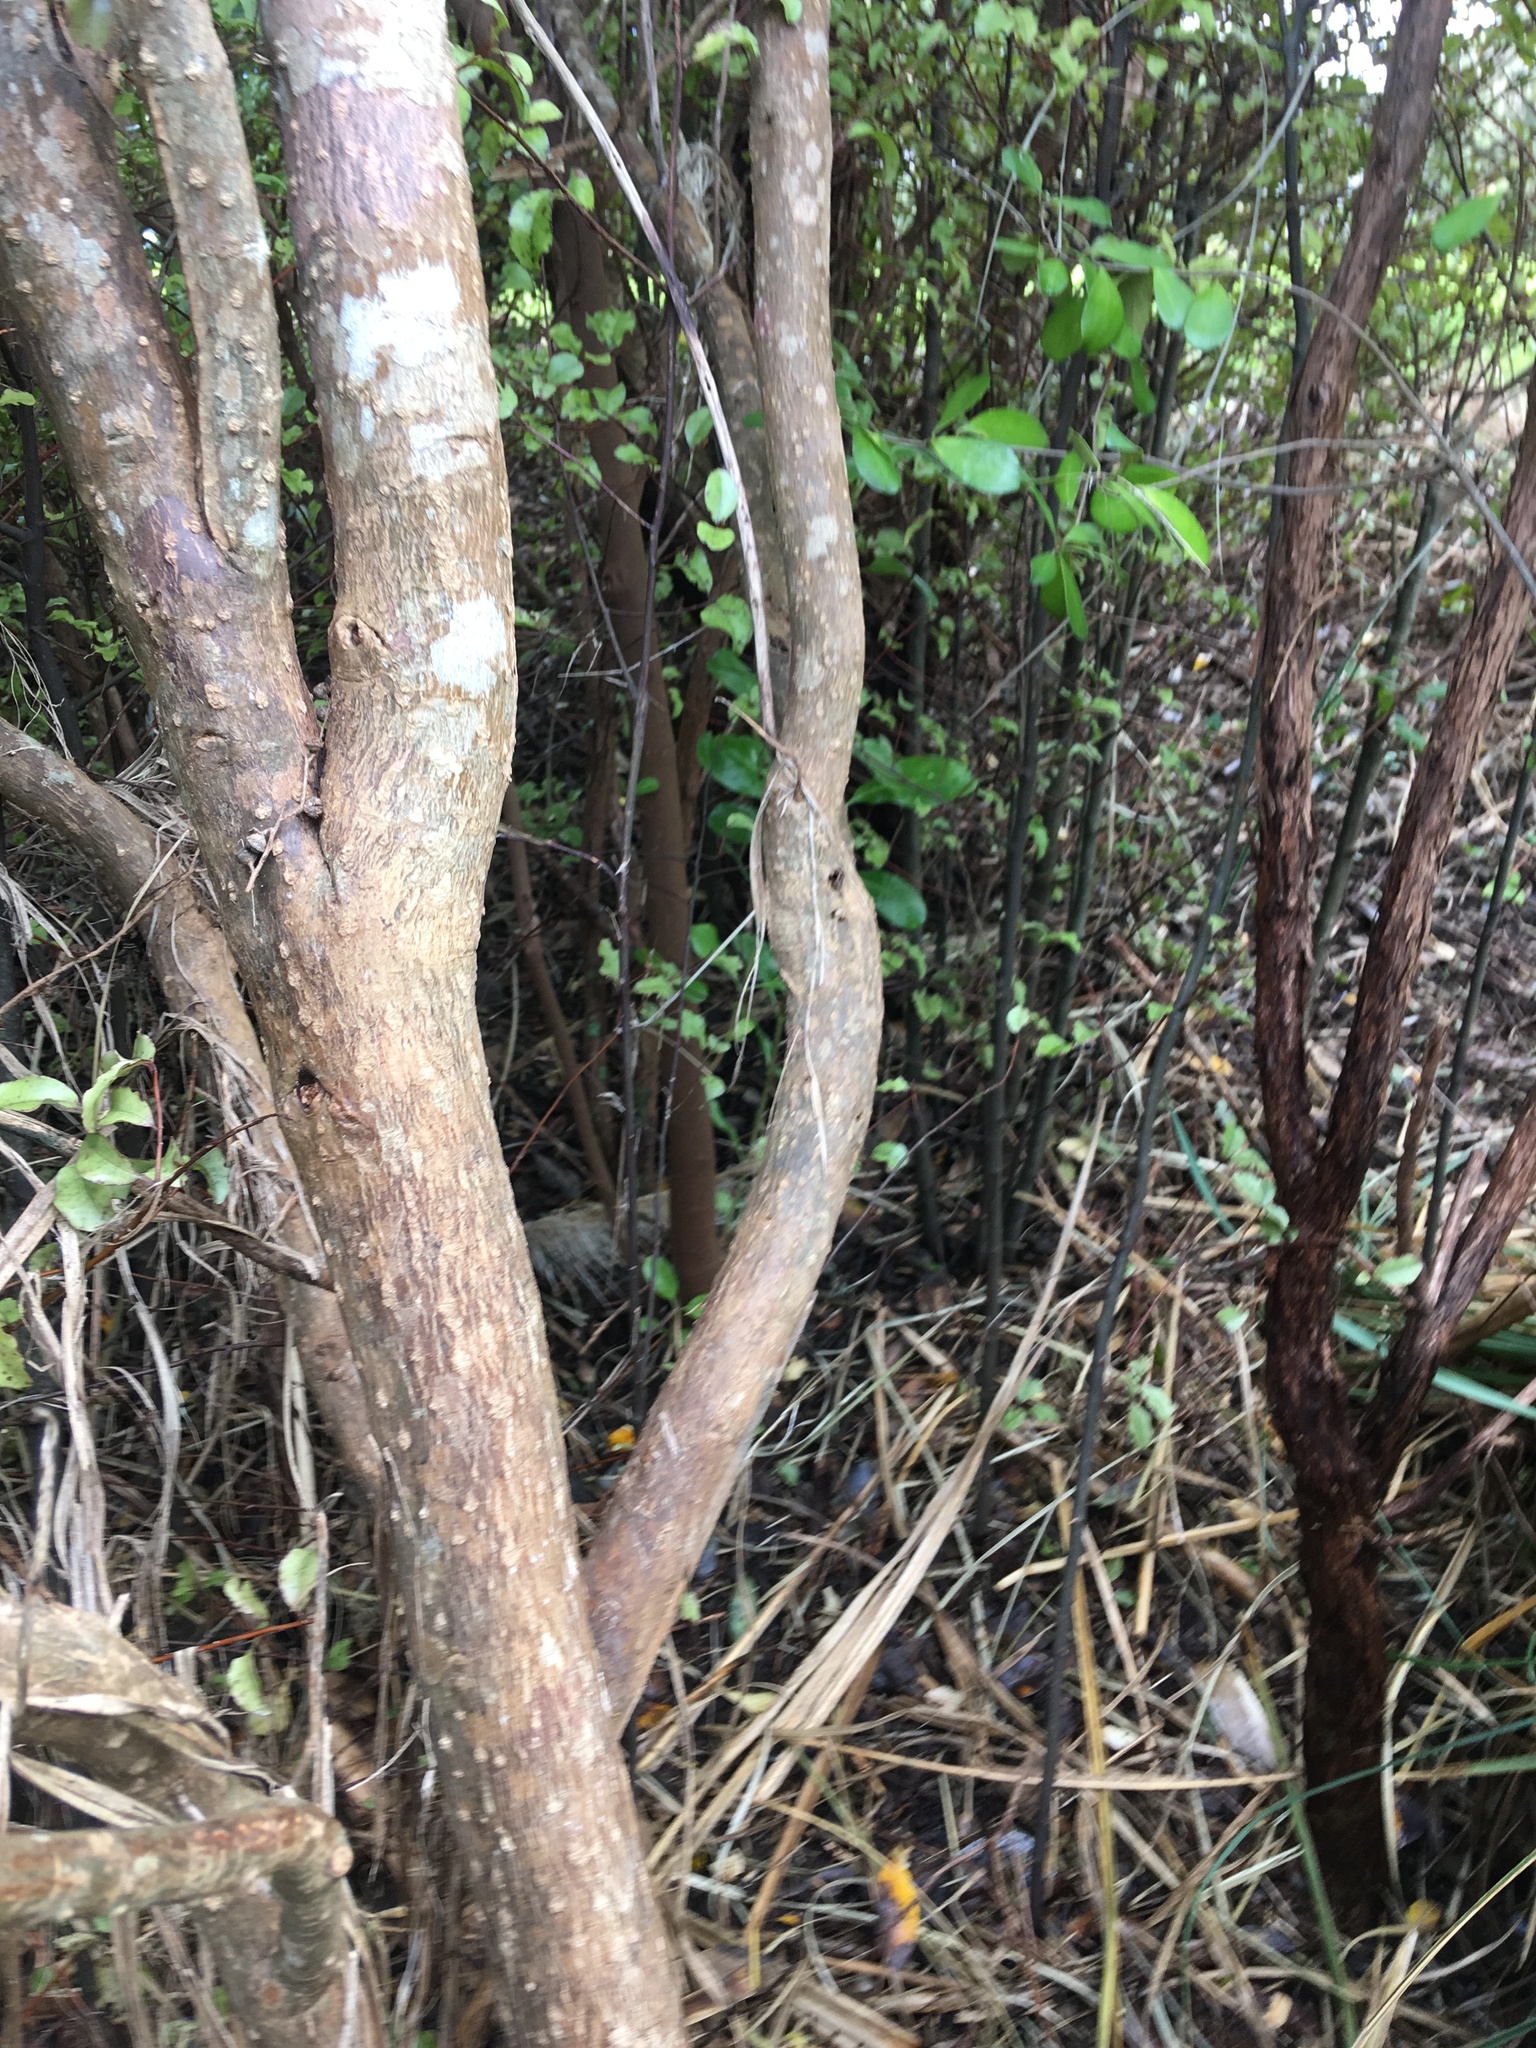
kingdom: Plantae
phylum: Tracheophyta
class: Magnoliopsida
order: Gentianales
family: Rubiaceae
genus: Coprosma
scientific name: Coprosma robusta
